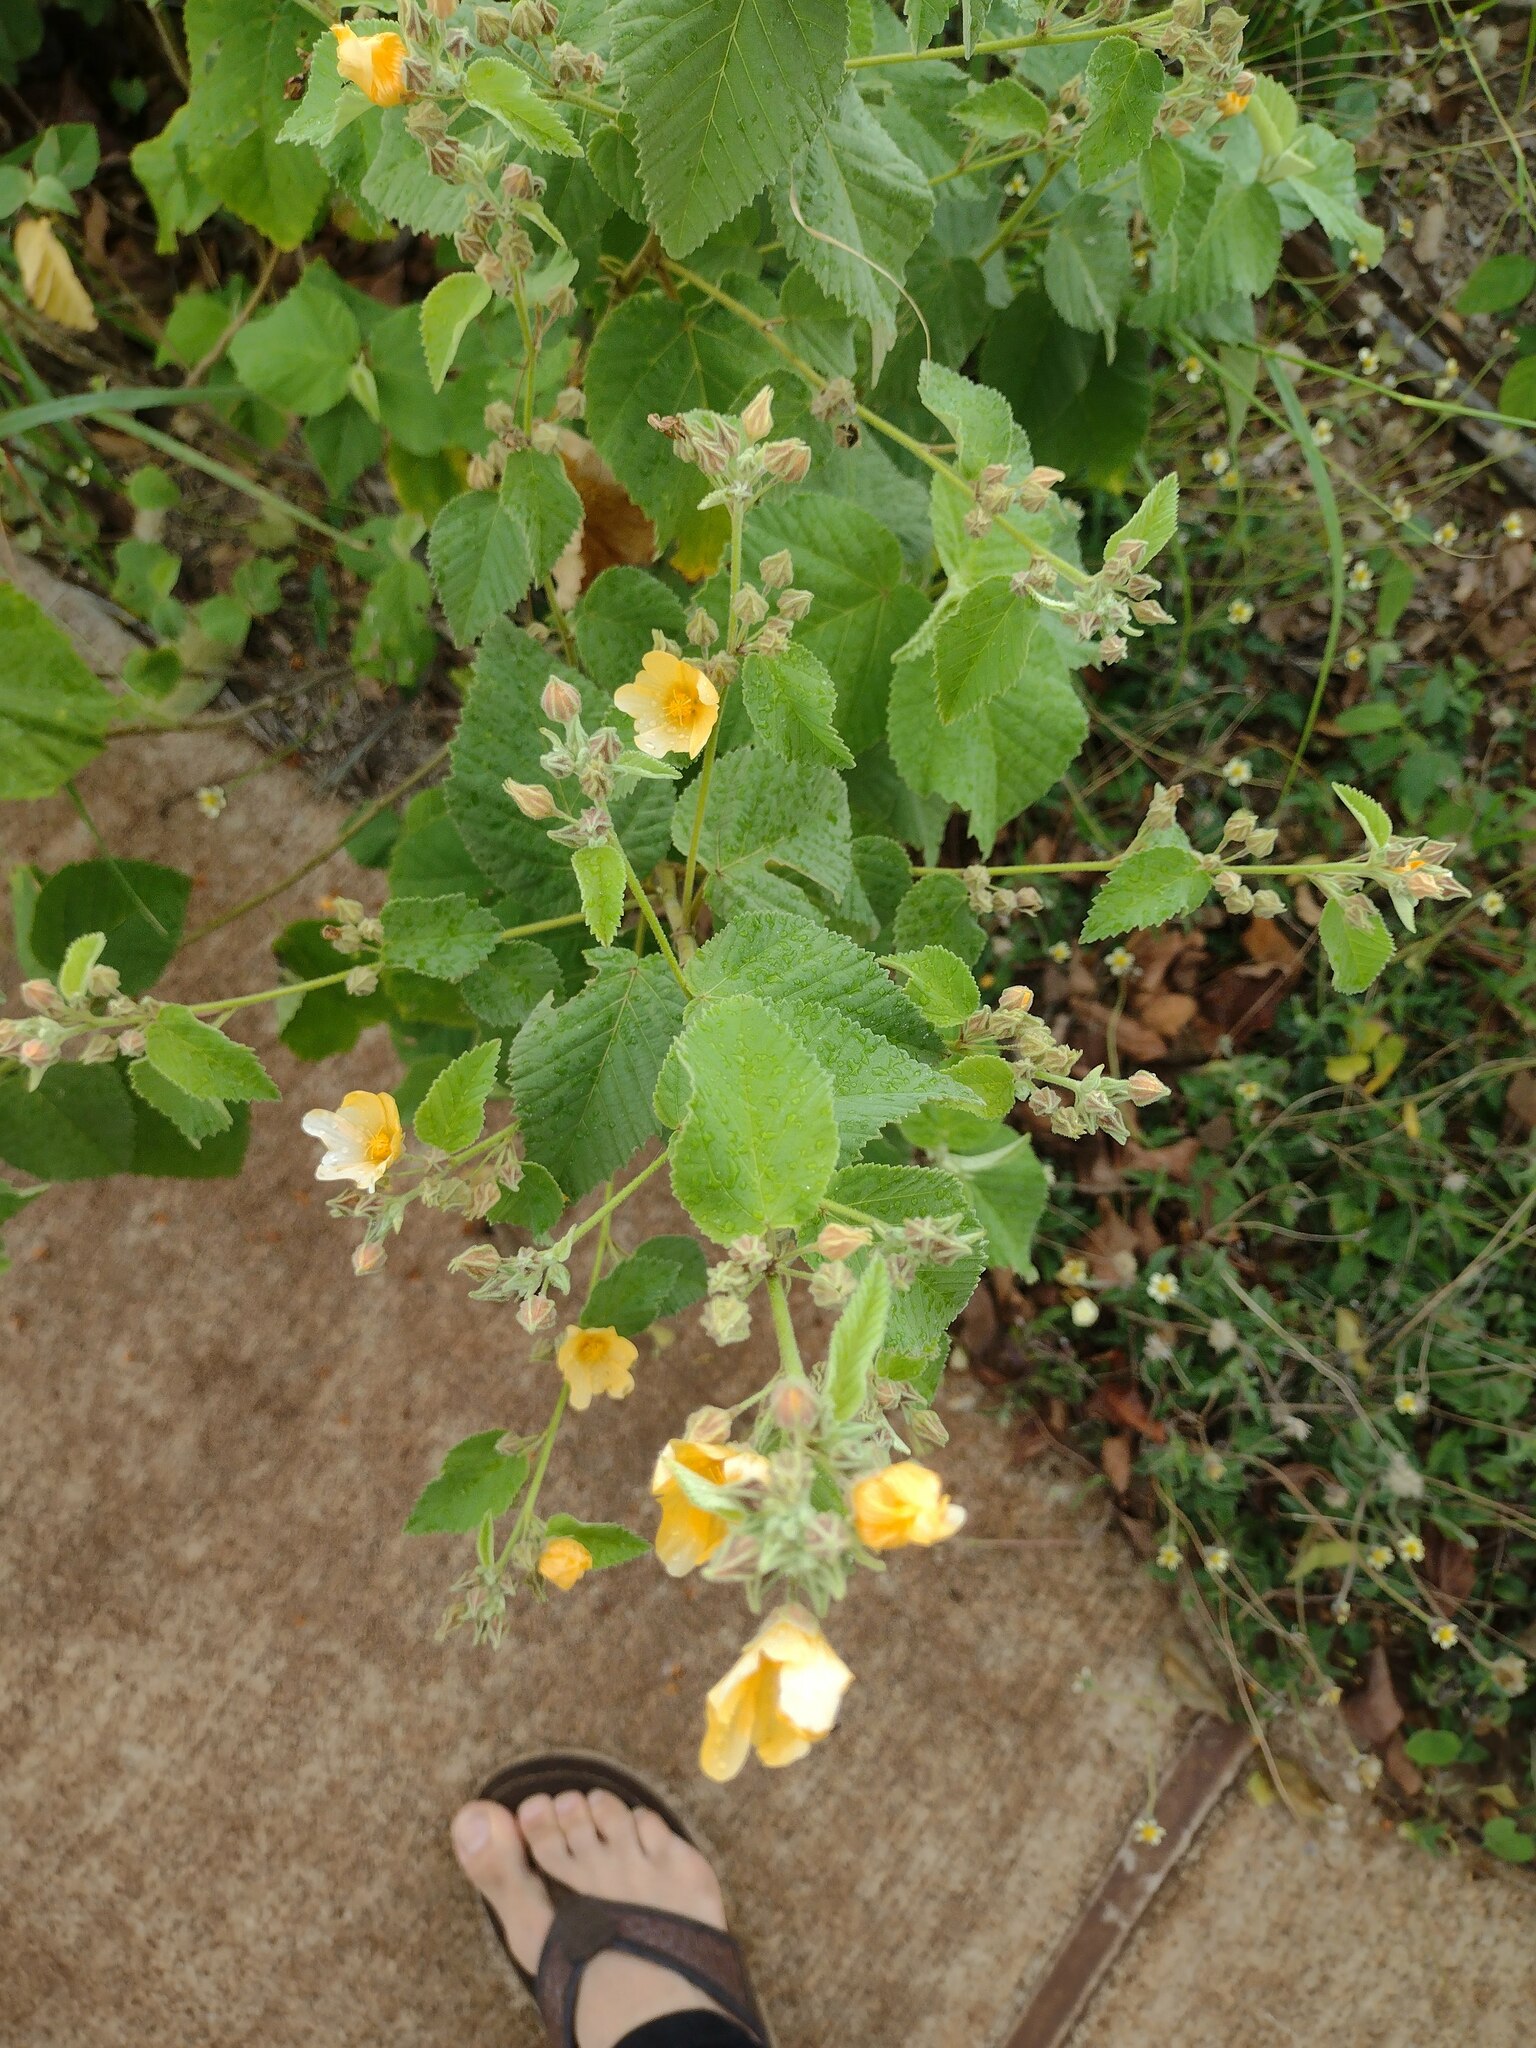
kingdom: Plantae
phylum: Tracheophyta
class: Magnoliopsida
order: Malvales
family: Malvaceae
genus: Sida
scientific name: Sida fallax
